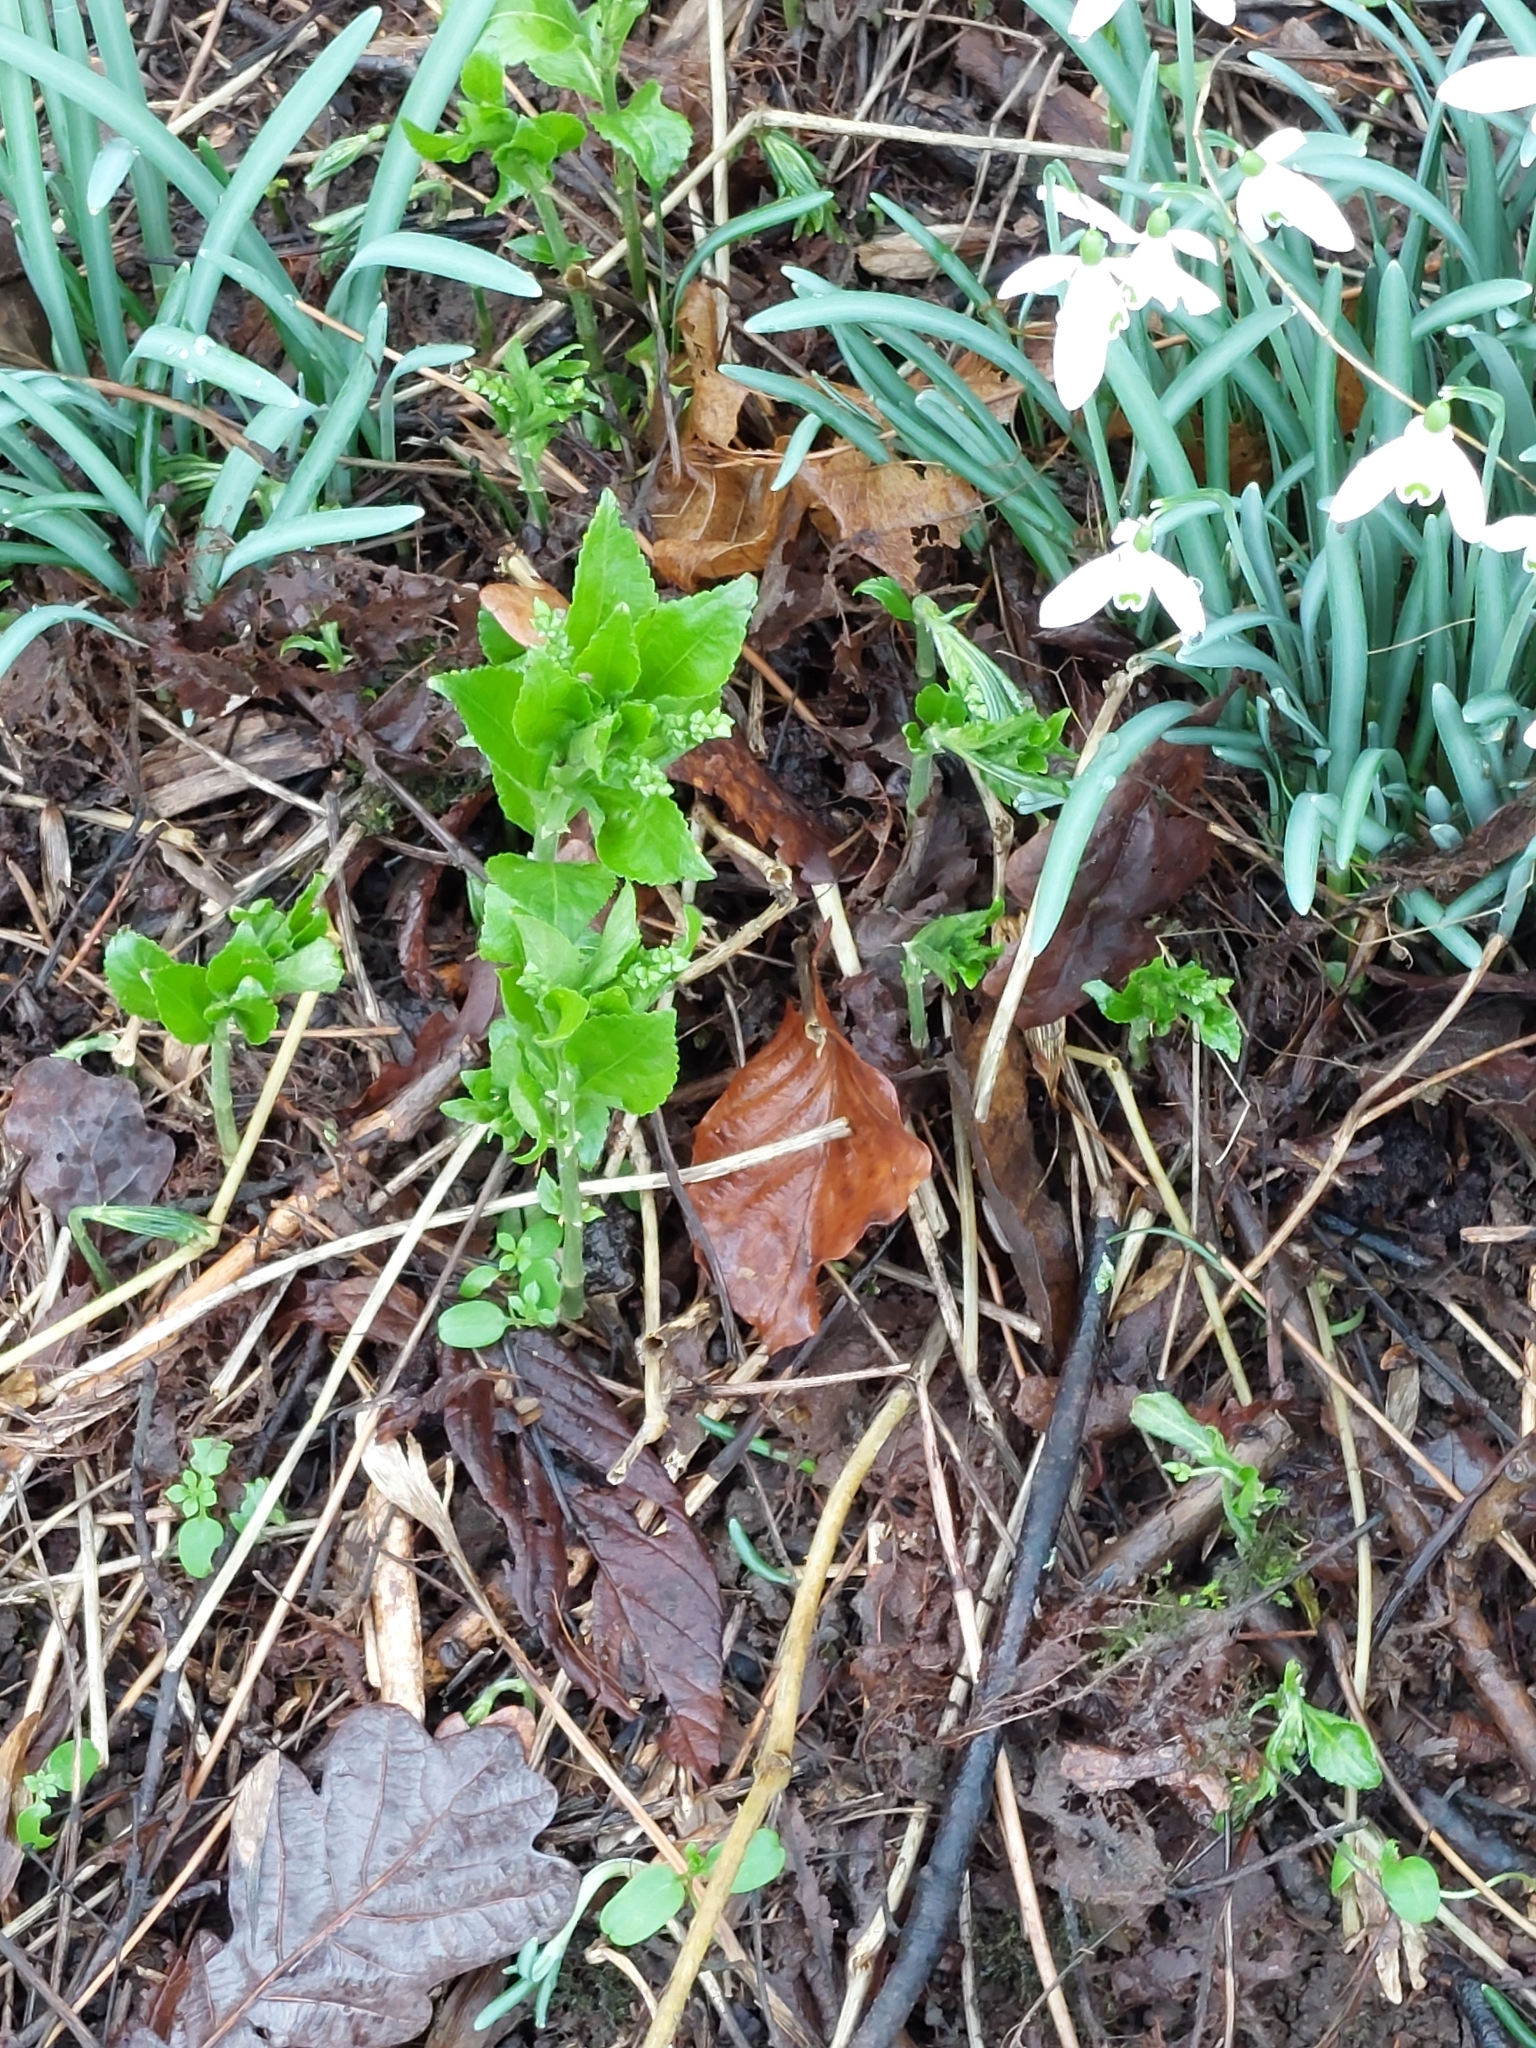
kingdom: Plantae
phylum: Tracheophyta
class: Magnoliopsida
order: Malpighiales
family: Euphorbiaceae
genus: Mercurialis
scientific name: Mercurialis perennis
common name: Dog mercury
